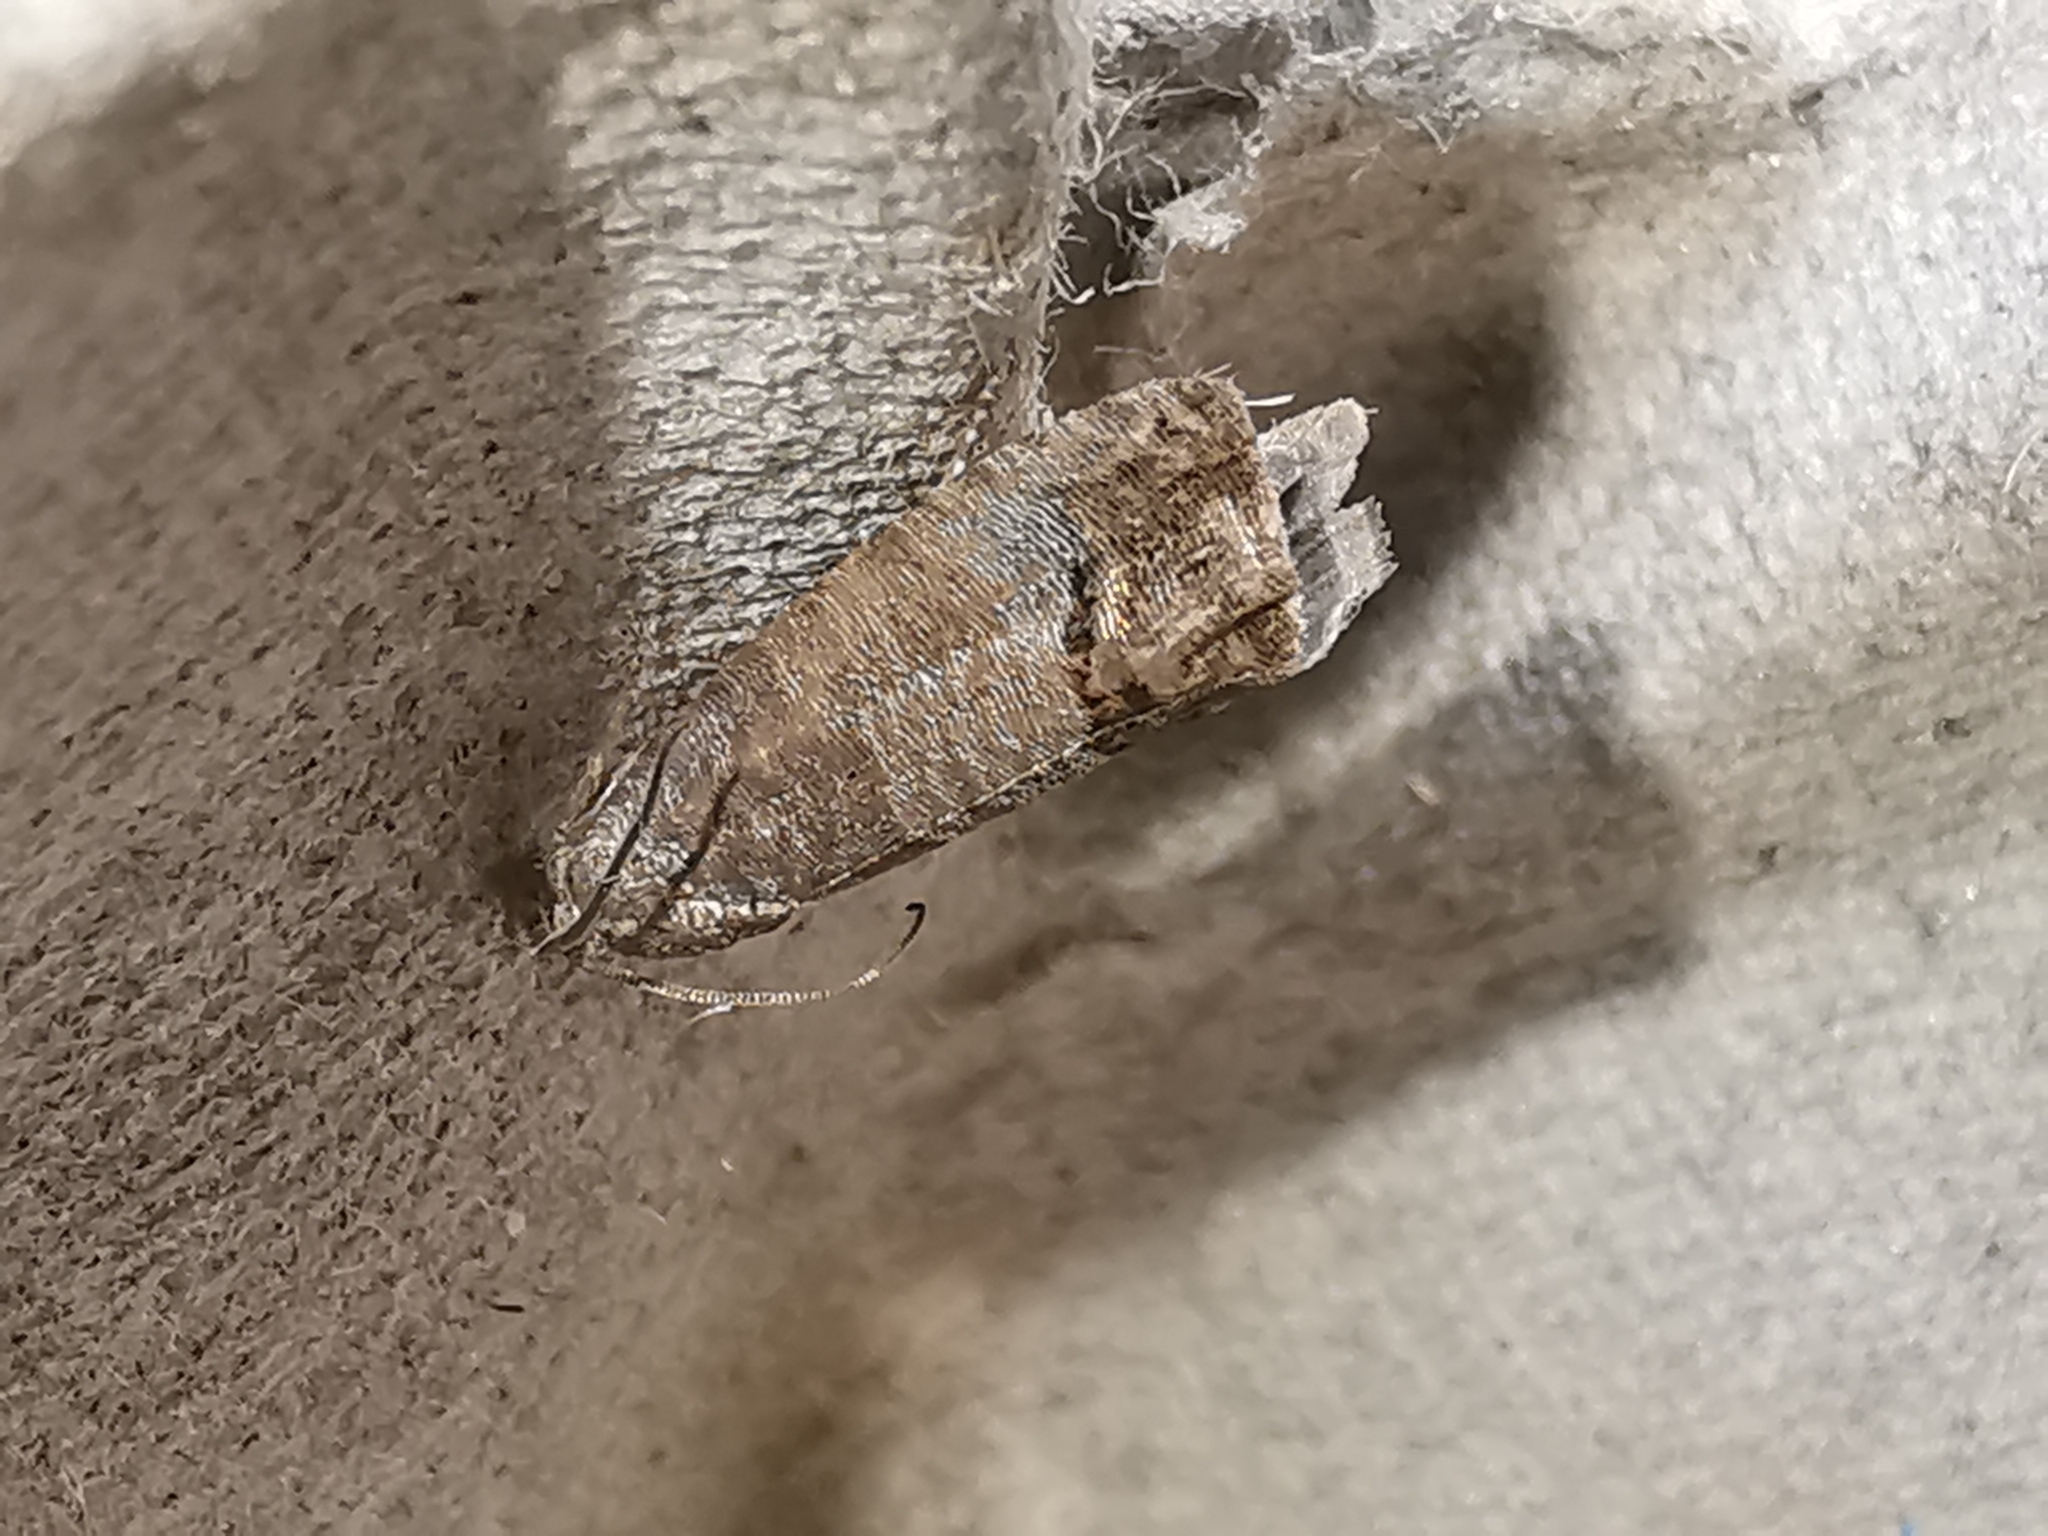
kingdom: Animalia
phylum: Arthropoda
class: Insecta
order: Lepidoptera
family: Tortricidae
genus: Cydia
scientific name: Cydia pomonella
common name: Codling moth
